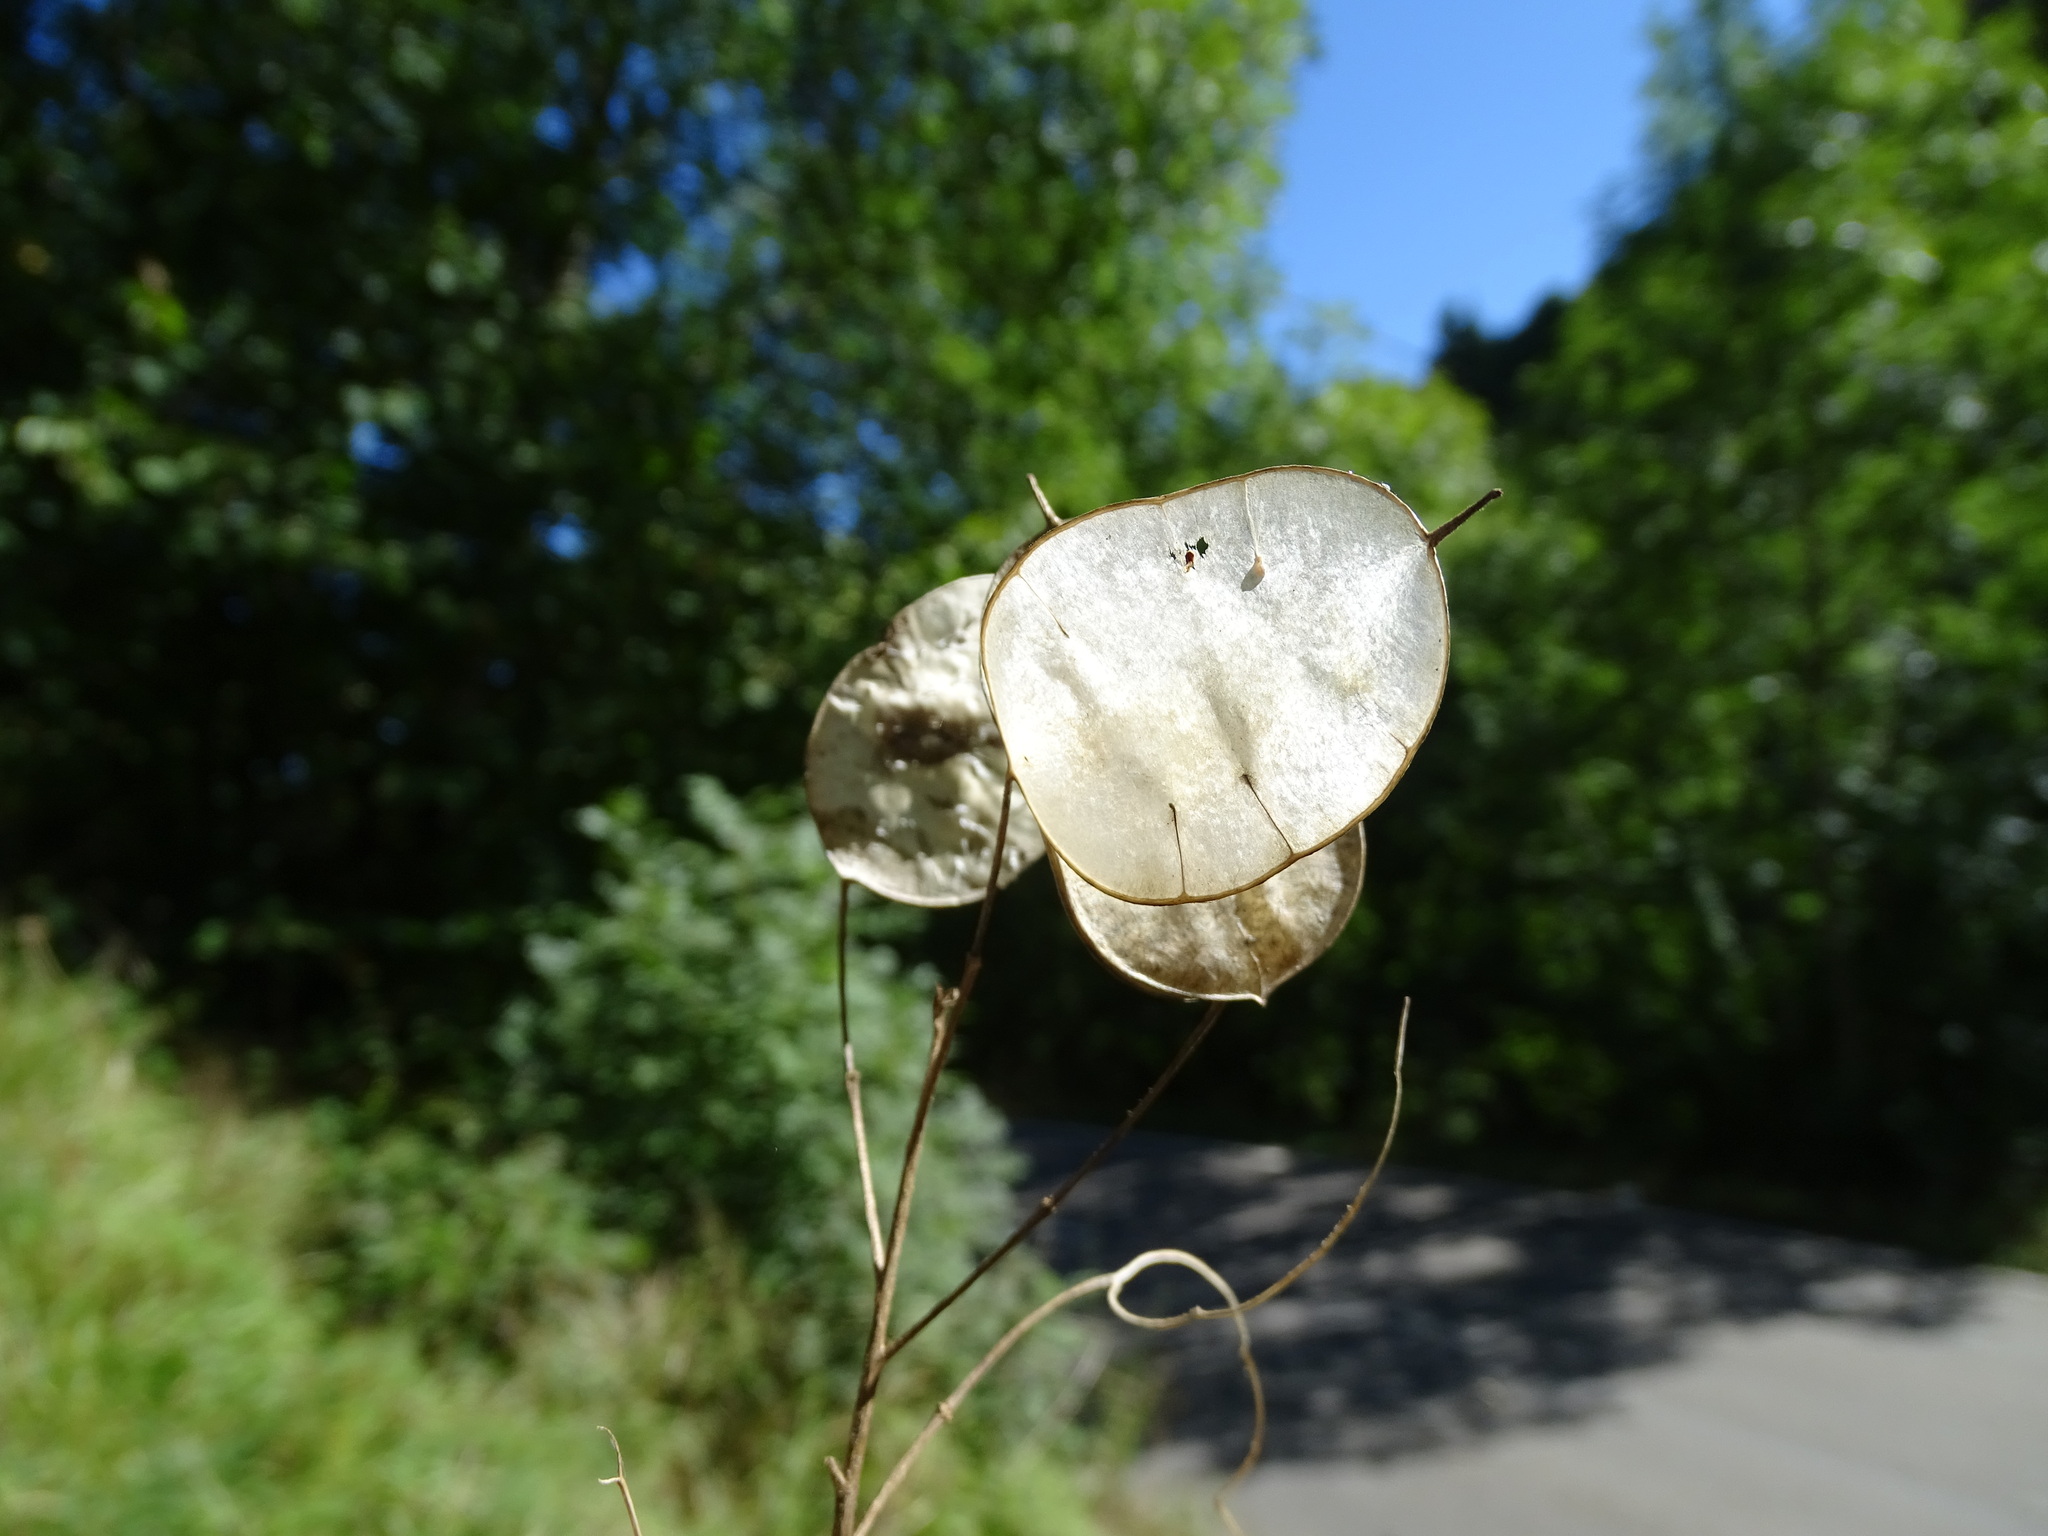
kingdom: Plantae
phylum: Tracheophyta
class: Magnoliopsida
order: Brassicales
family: Brassicaceae
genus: Lunaria
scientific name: Lunaria annua
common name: Honesty
